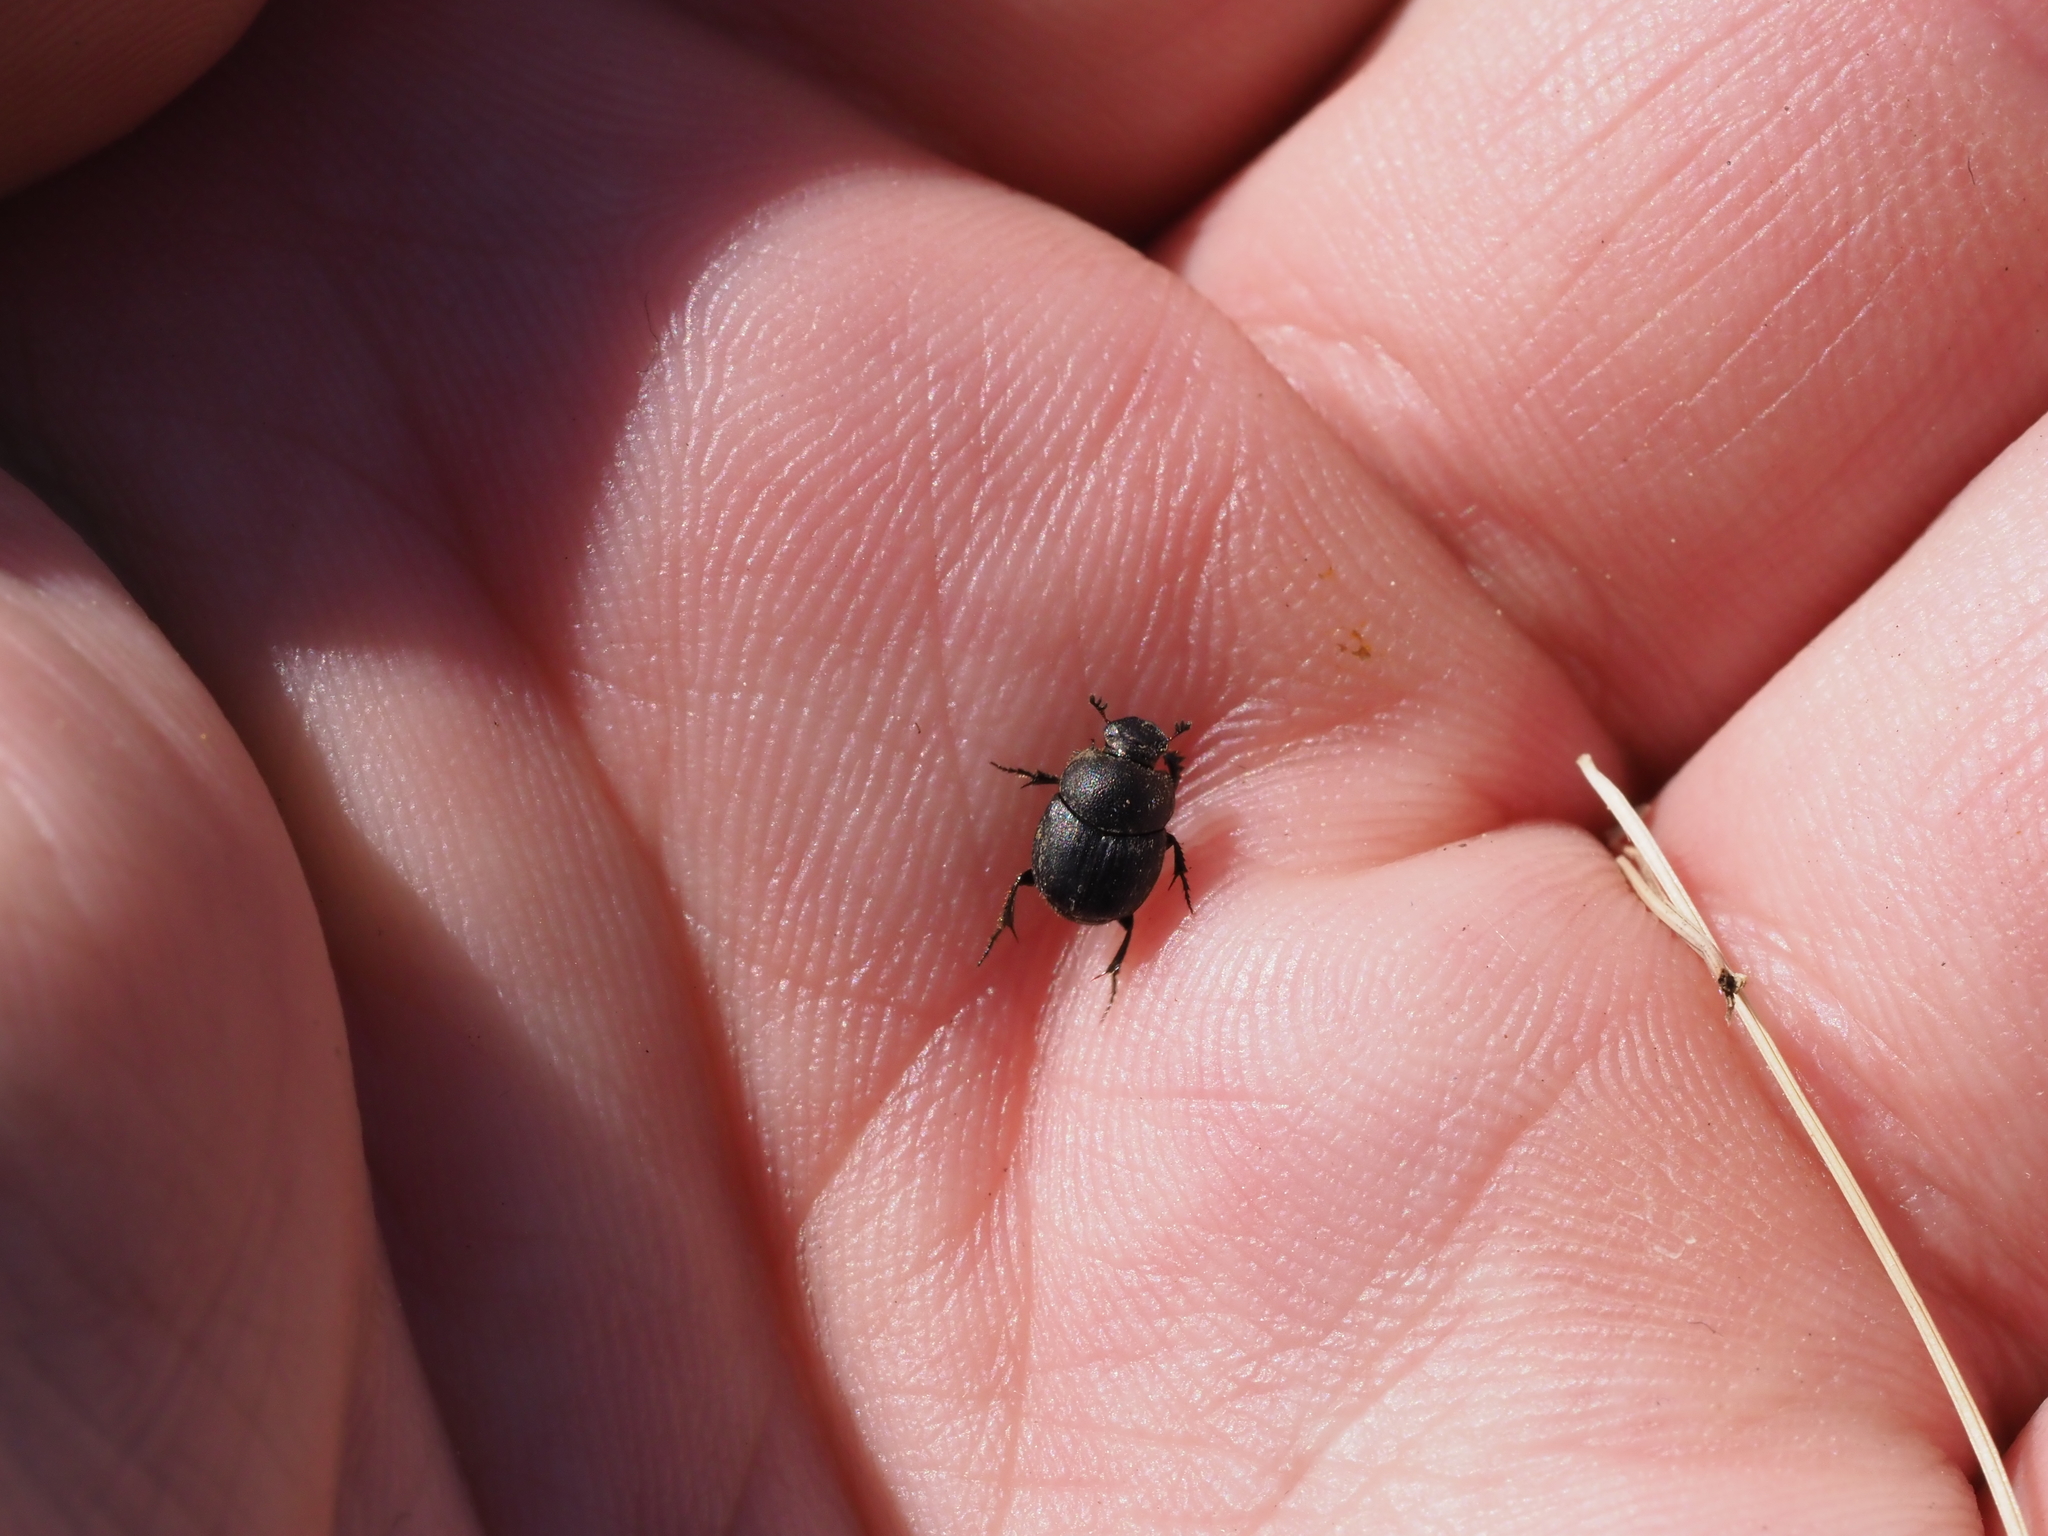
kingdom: Animalia
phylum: Arthropoda
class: Insecta
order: Coleoptera
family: Scarabaeidae
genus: Onthophagus
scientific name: Onthophagus ovatus
